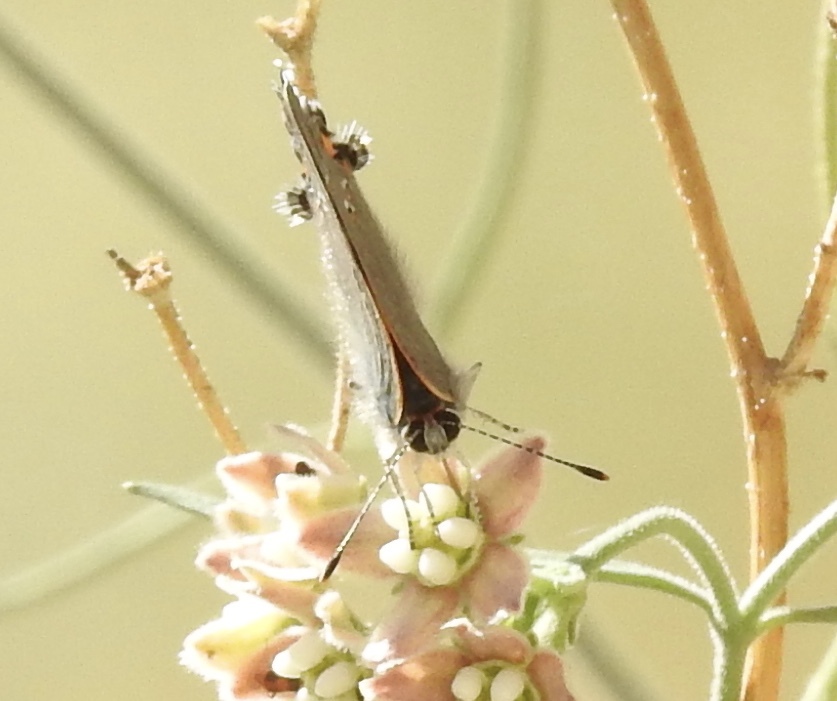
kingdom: Animalia
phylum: Arthropoda
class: Insecta
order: Lepidoptera
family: Lycaenidae
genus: Strymon
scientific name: Strymon melinus
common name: Gray hairstreak
